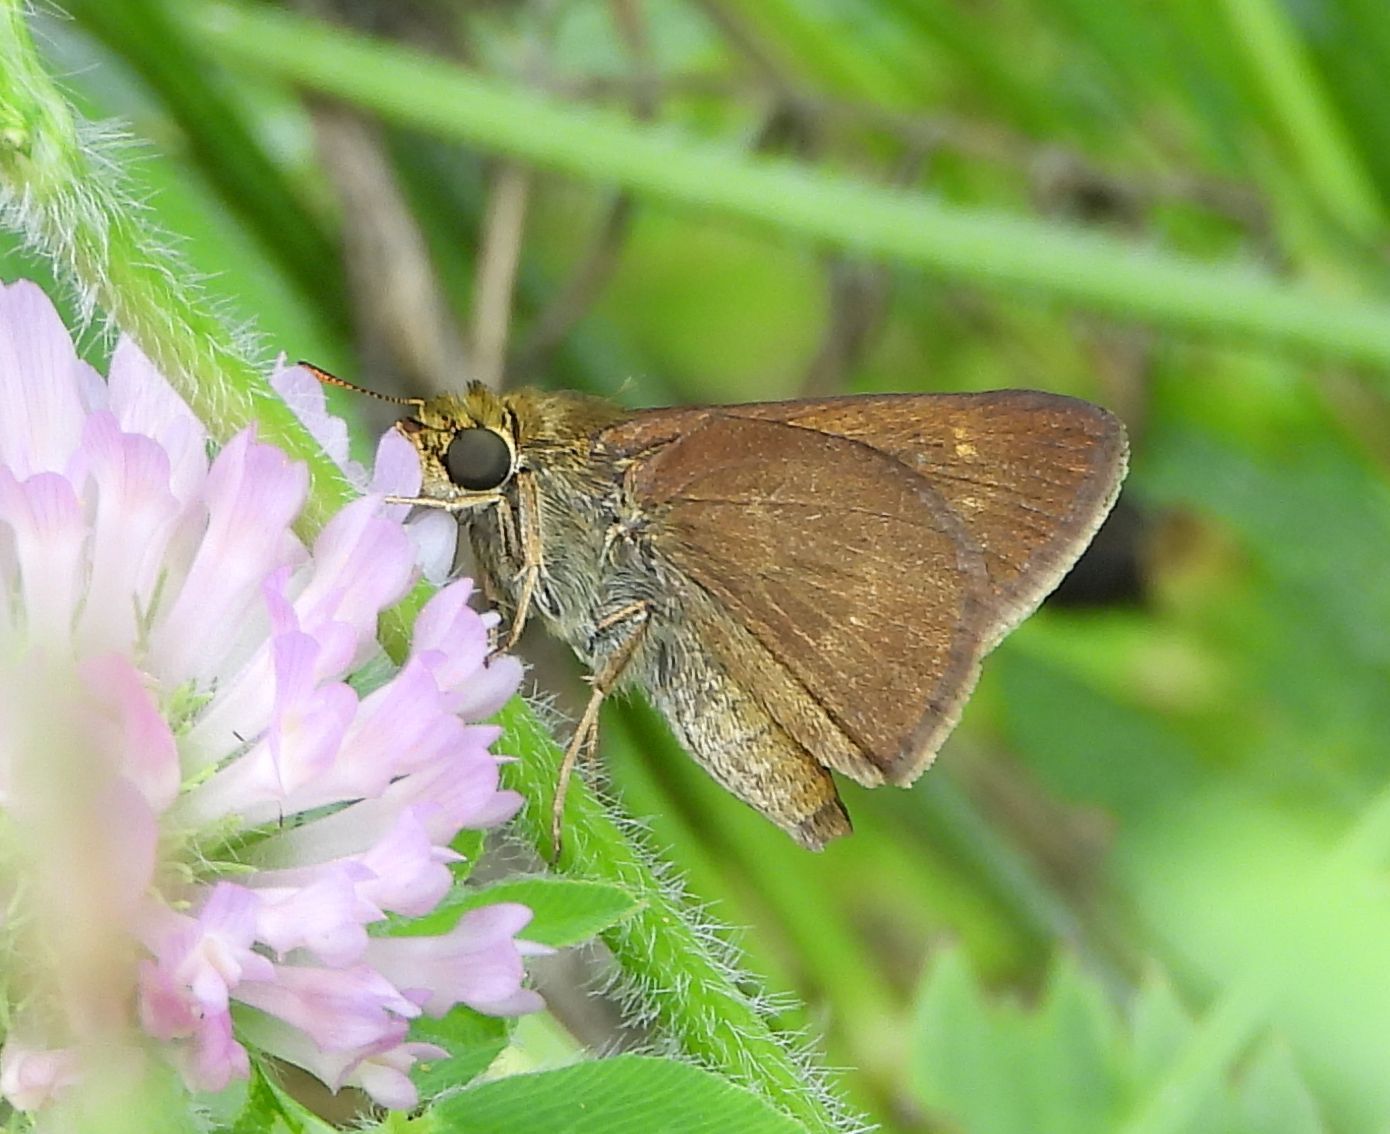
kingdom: Animalia
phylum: Arthropoda
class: Insecta
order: Lepidoptera
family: Hesperiidae
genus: Euphyes
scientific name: Euphyes vestris
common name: Dun skipper
